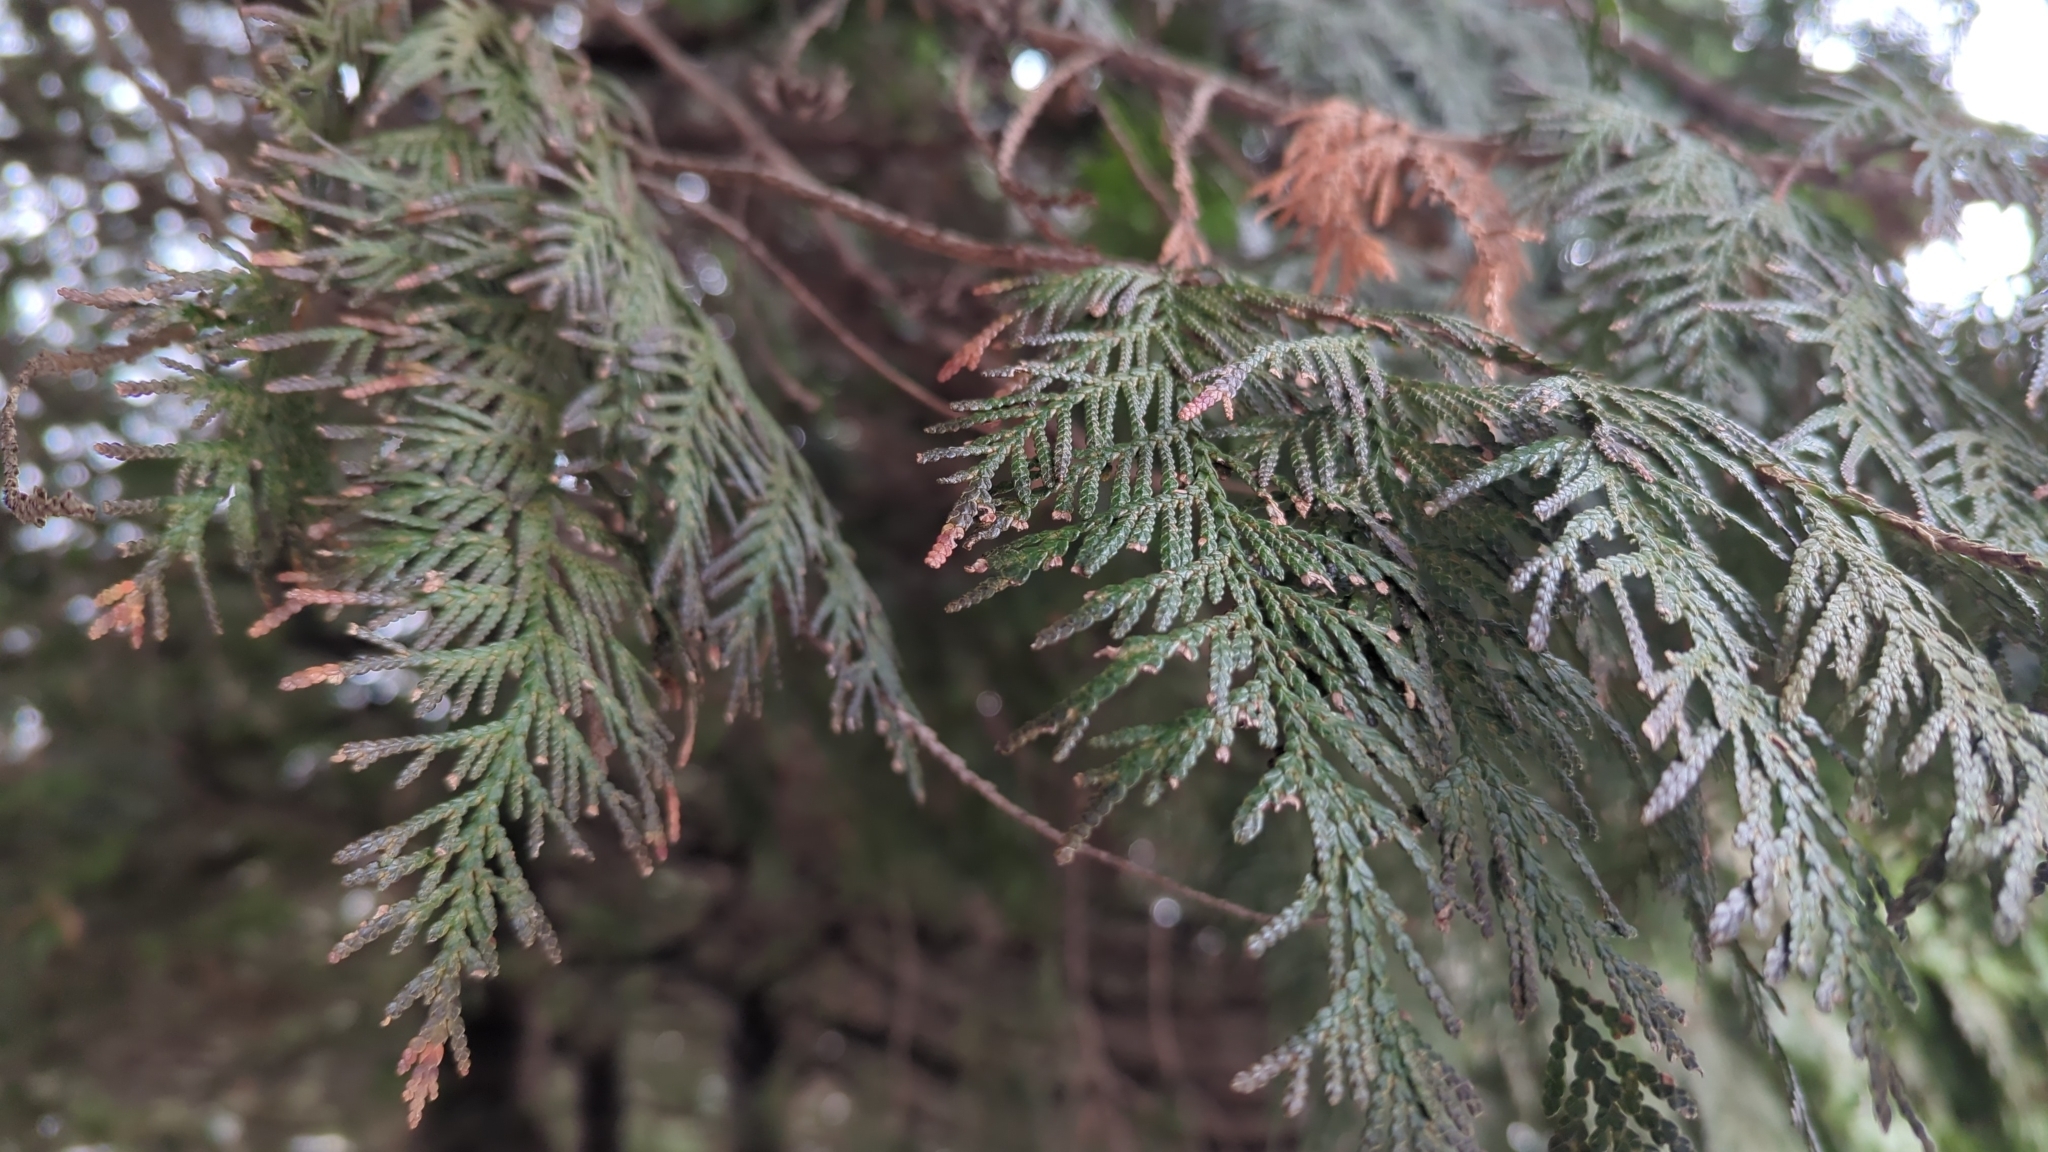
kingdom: Plantae
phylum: Tracheophyta
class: Pinopsida
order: Pinales
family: Cupressaceae
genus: Thuja
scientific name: Thuja plicata
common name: Western red-cedar
